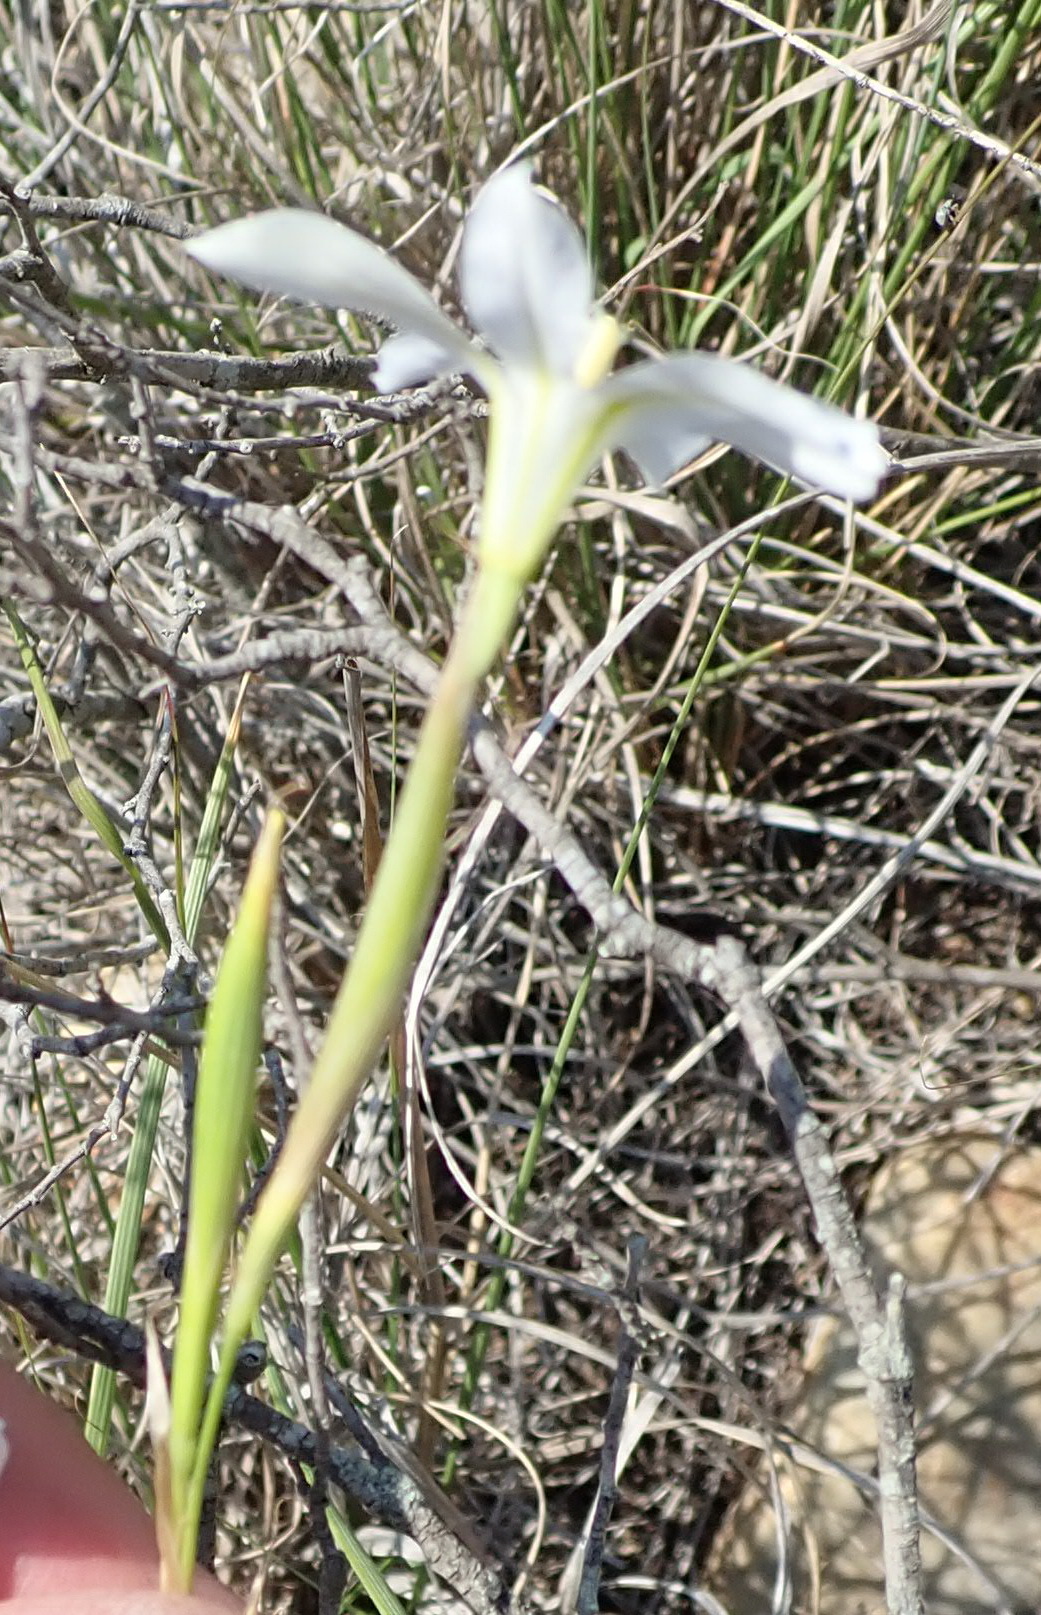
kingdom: Plantae
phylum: Tracheophyta
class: Liliopsida
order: Asparagales
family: Iridaceae
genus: Moraea
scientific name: Moraea polyanthos
